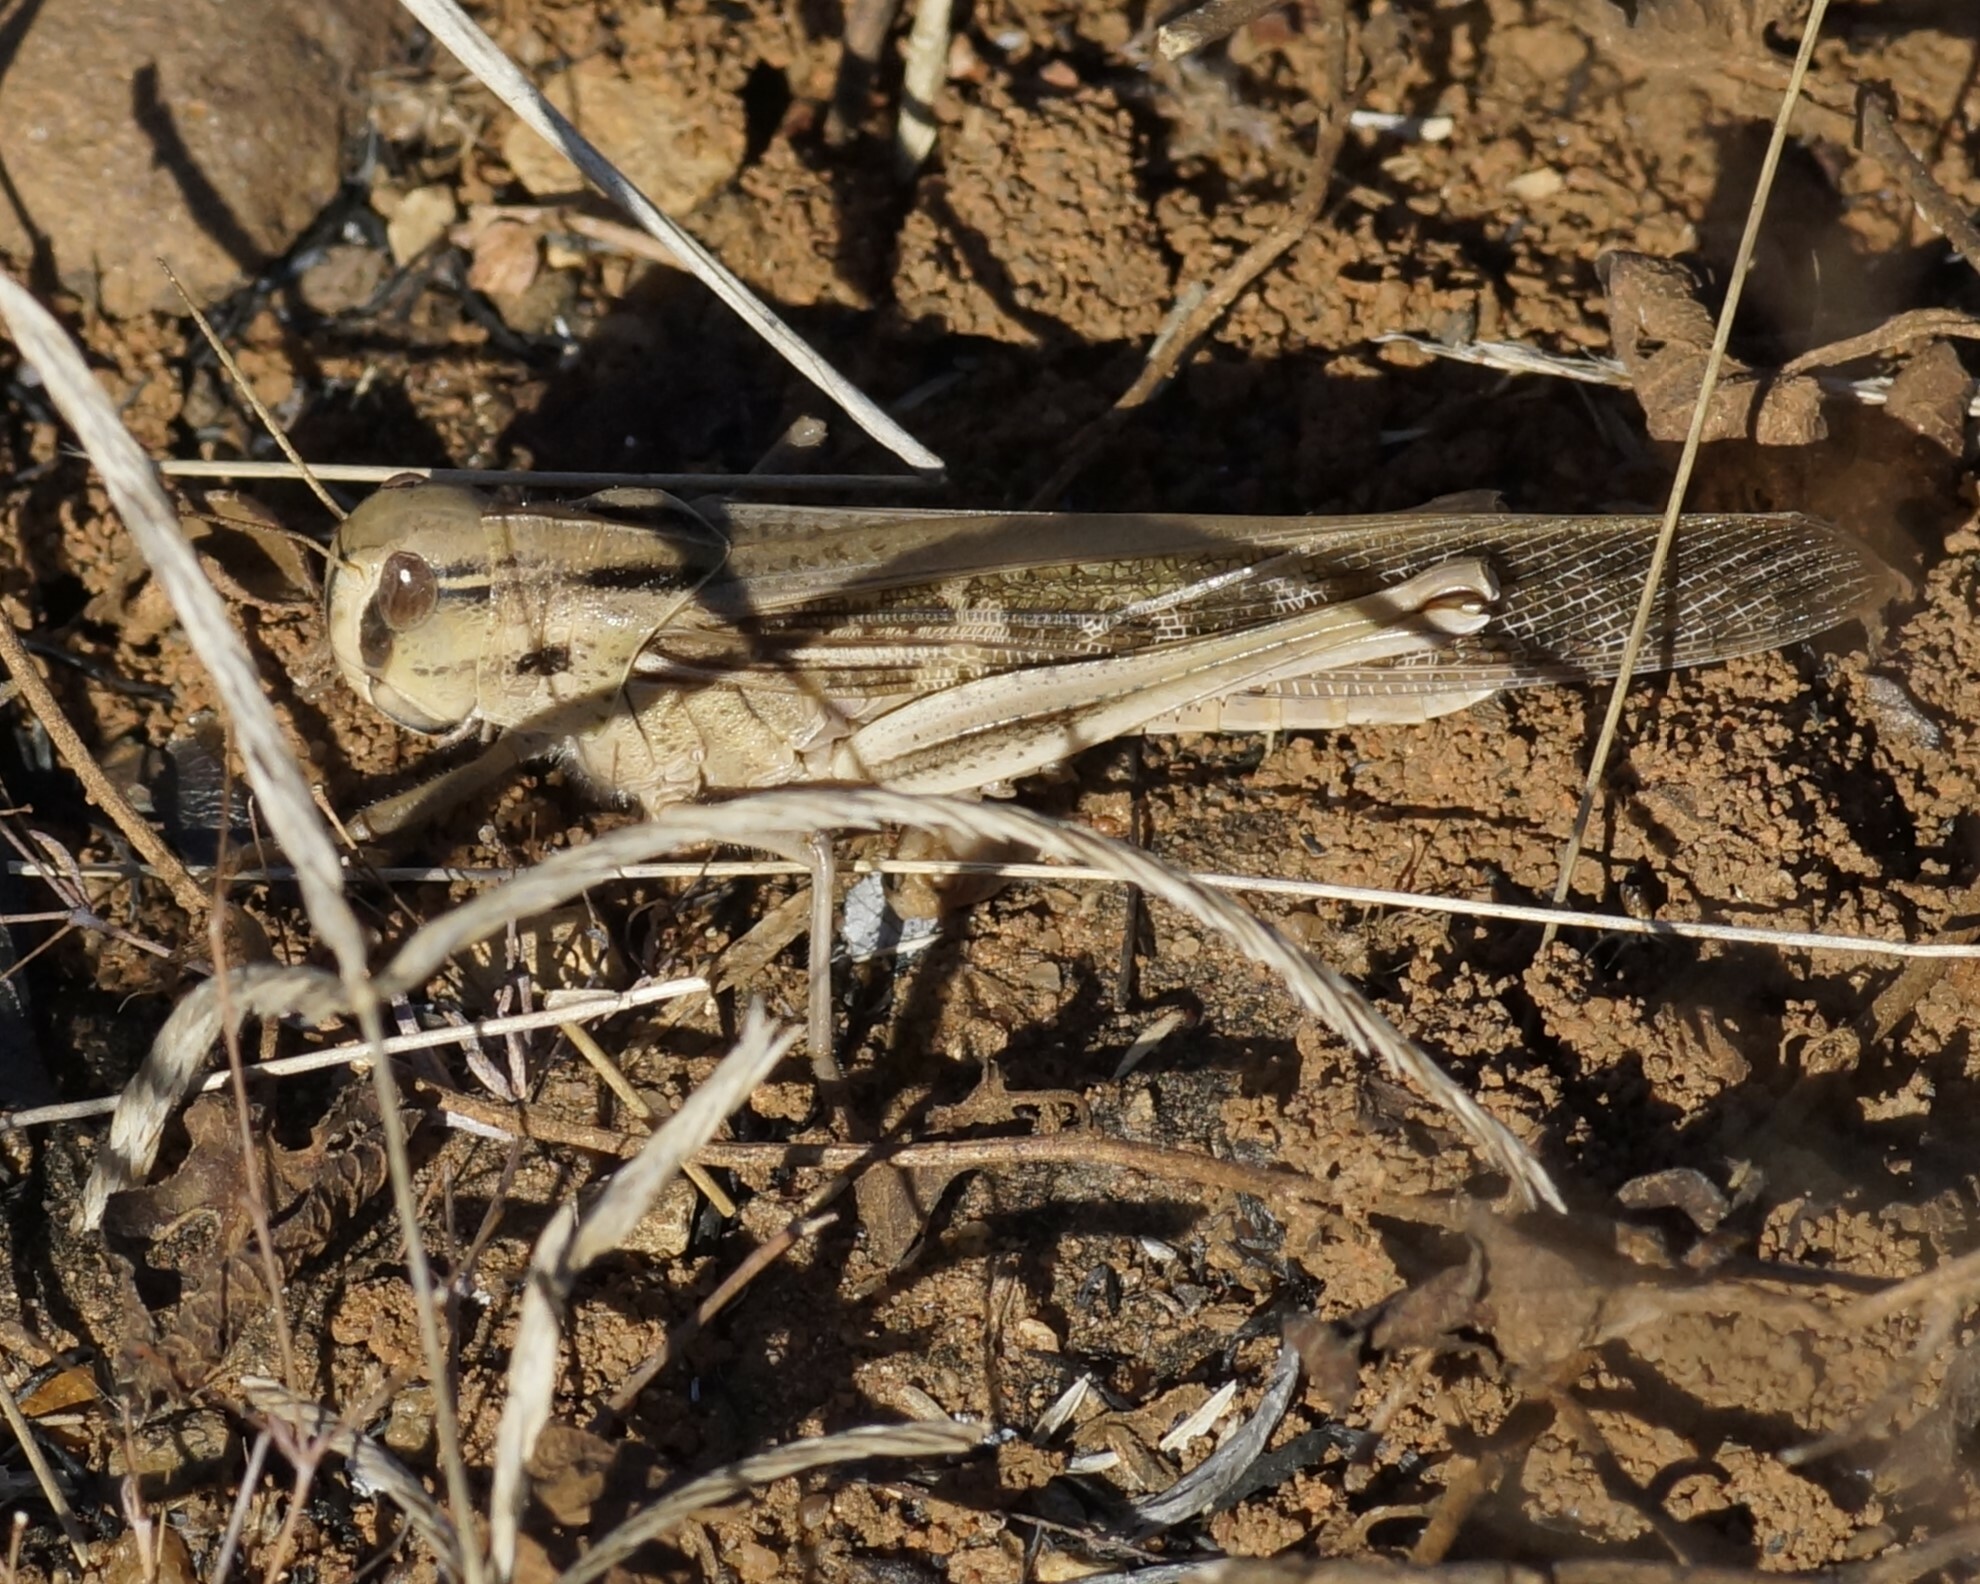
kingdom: Animalia
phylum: Arthropoda
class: Insecta
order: Orthoptera
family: Acrididae
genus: Locusta
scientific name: Locusta migratoria
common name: Migratory locust
